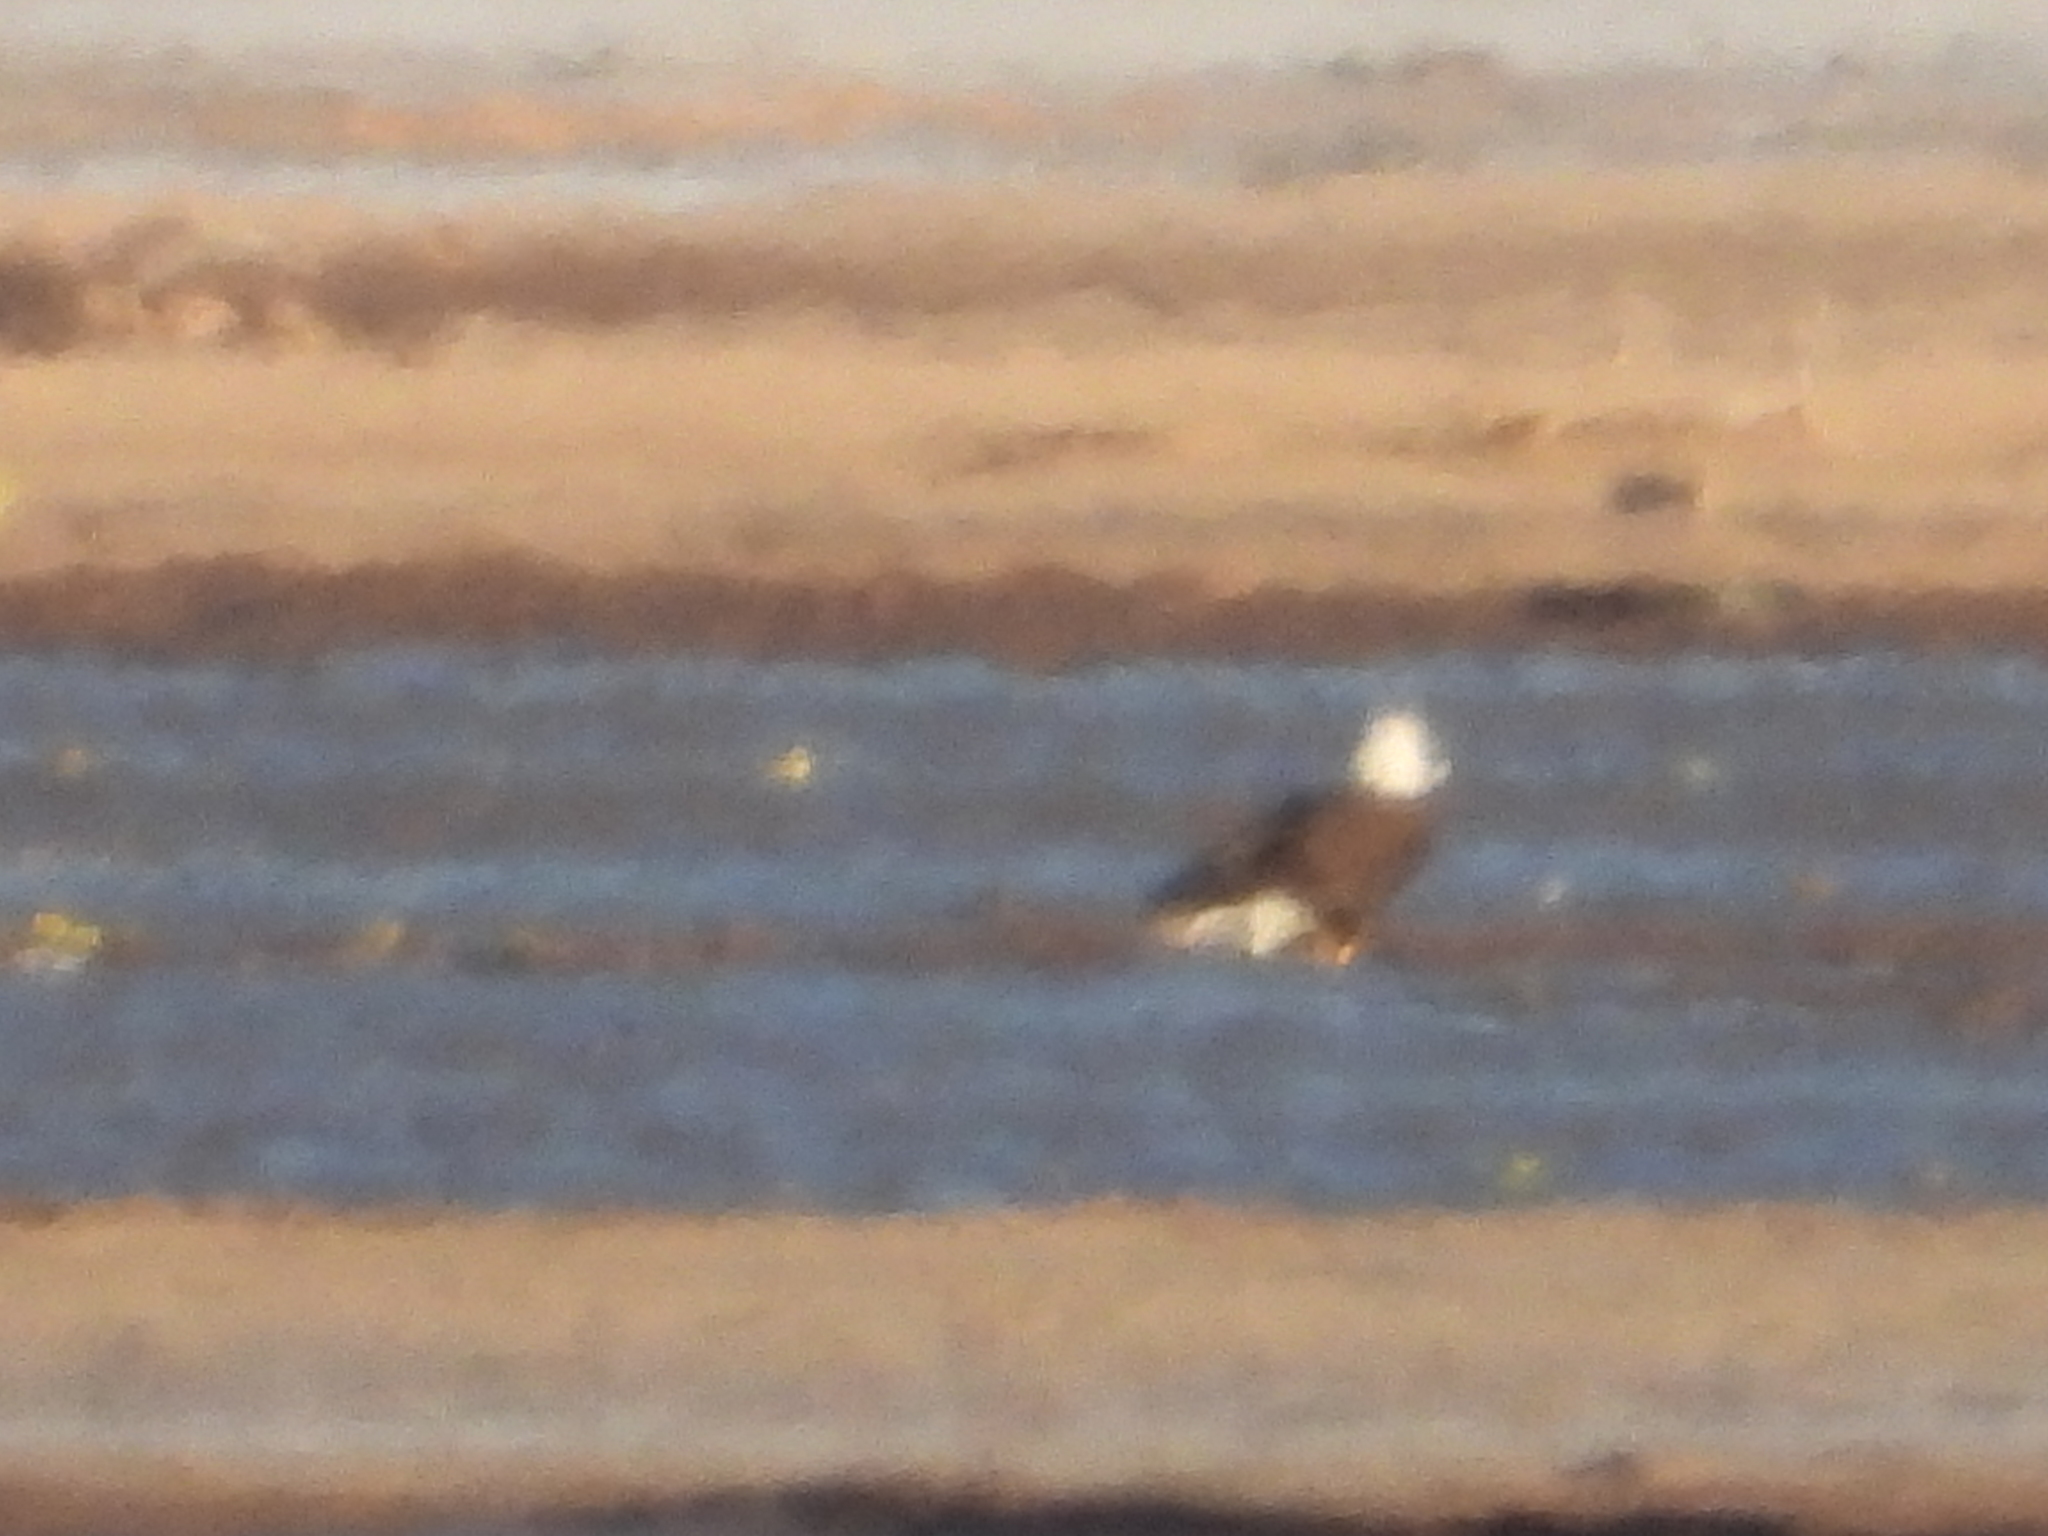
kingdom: Animalia
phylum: Chordata
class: Aves
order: Accipitriformes
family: Accipitridae
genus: Haliaeetus
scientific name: Haliaeetus leucocephalus
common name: Bald eagle
